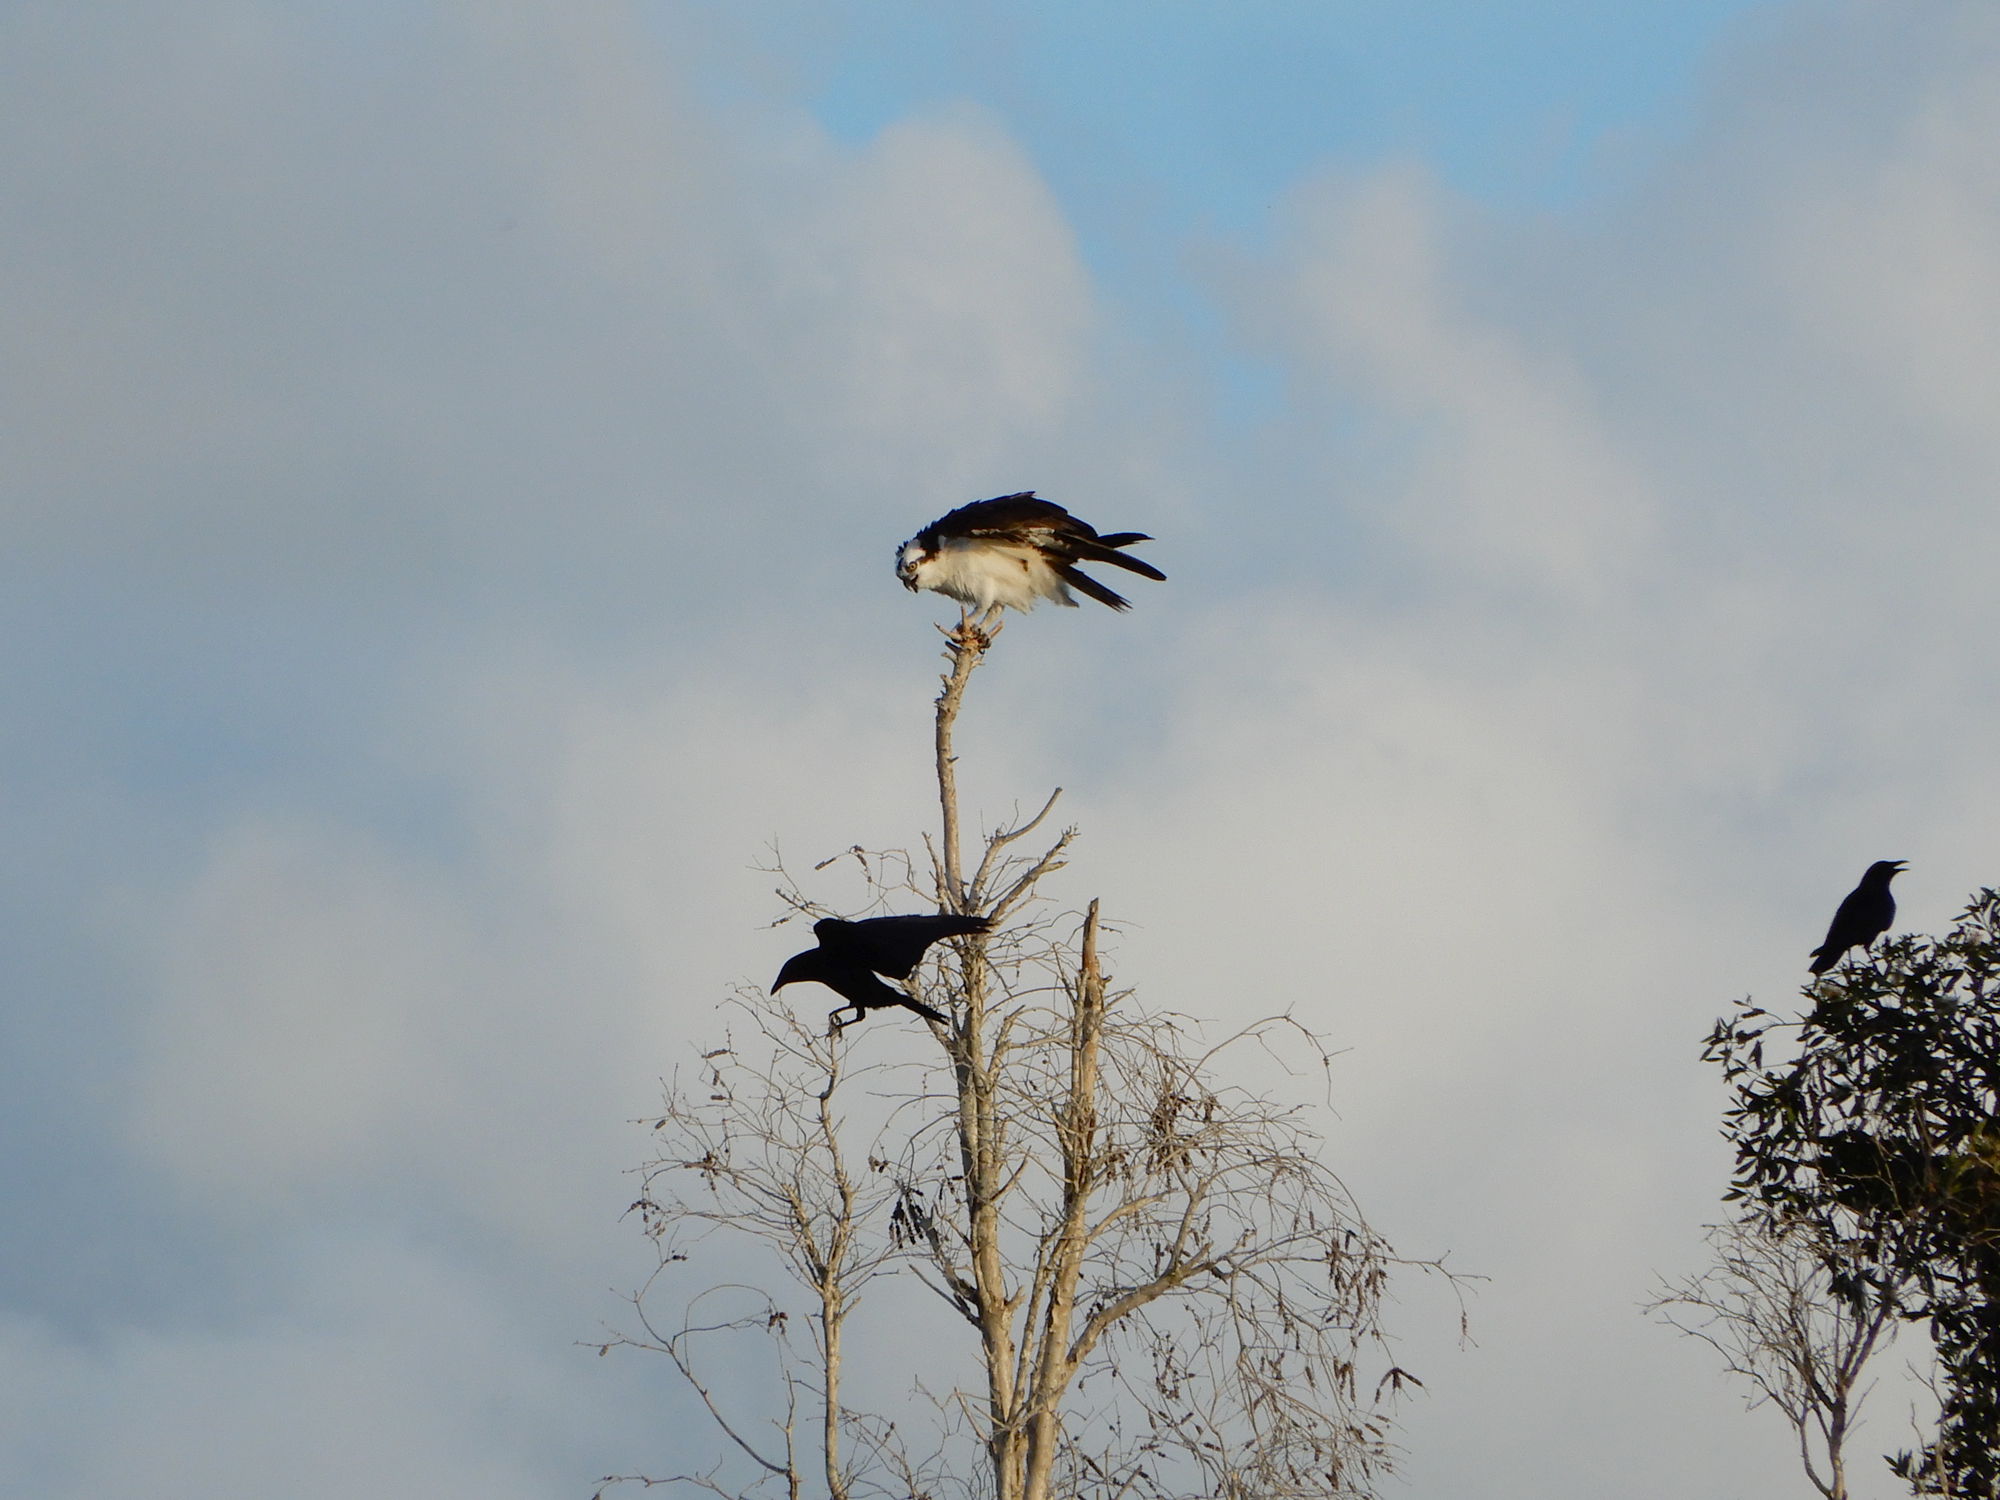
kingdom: Animalia
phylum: Chordata
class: Aves
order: Accipitriformes
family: Pandionidae
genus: Pandion
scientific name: Pandion haliaetus
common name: Osprey
